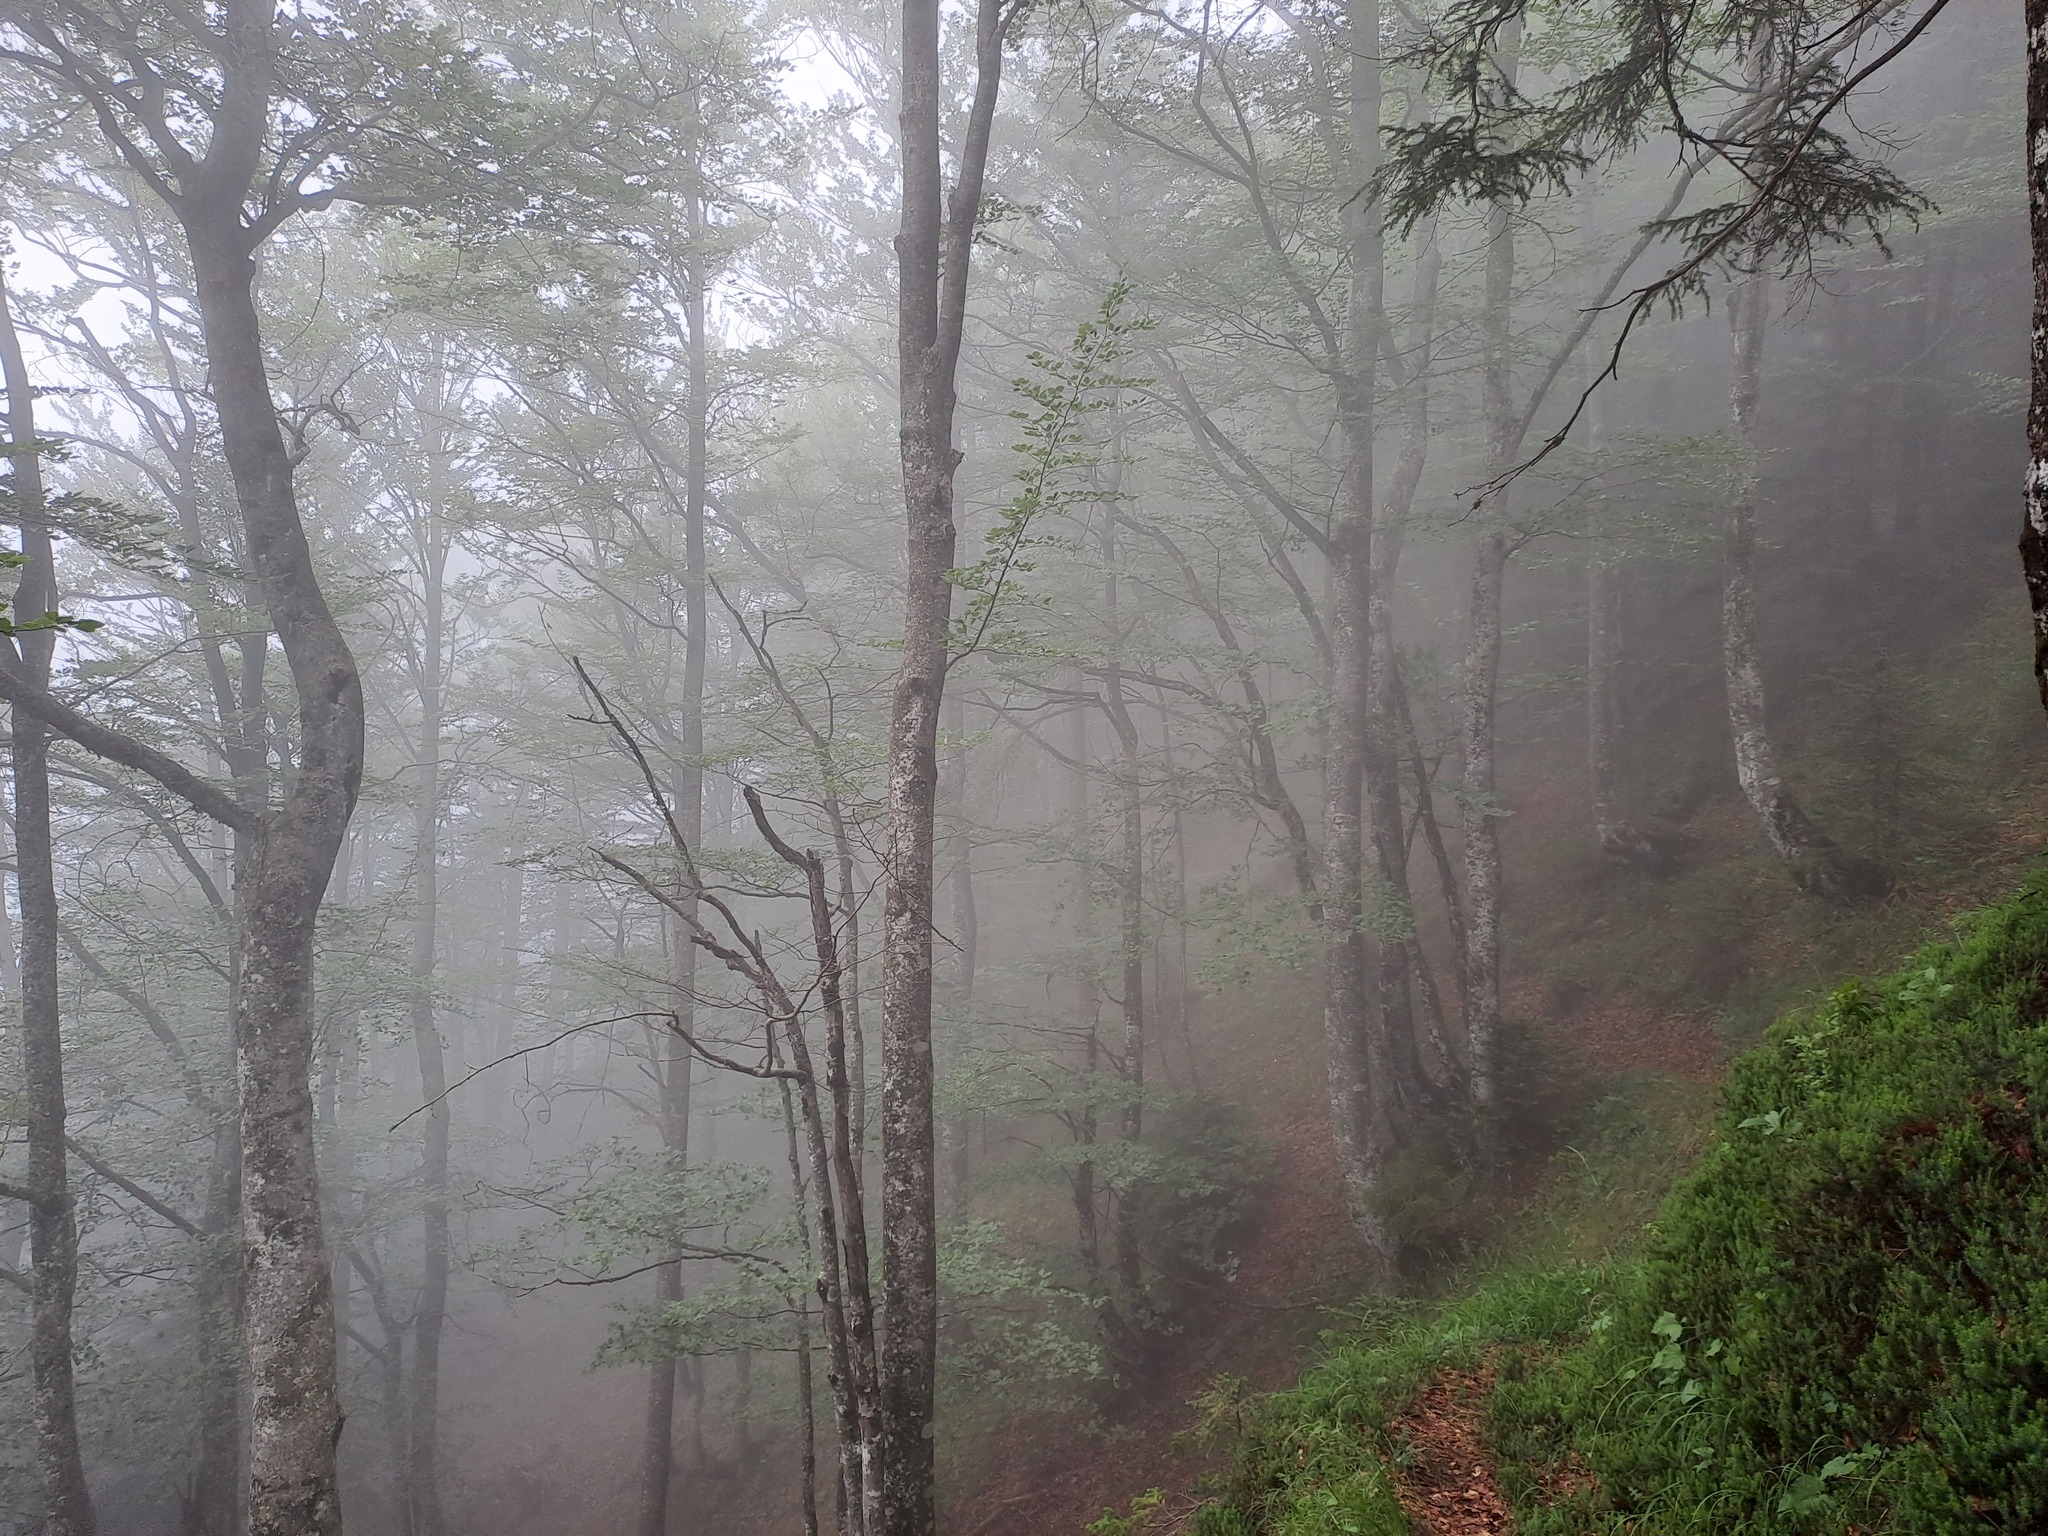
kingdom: Plantae
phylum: Tracheophyta
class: Magnoliopsida
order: Fagales
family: Fagaceae
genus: Fagus
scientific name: Fagus sylvatica
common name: Beech
